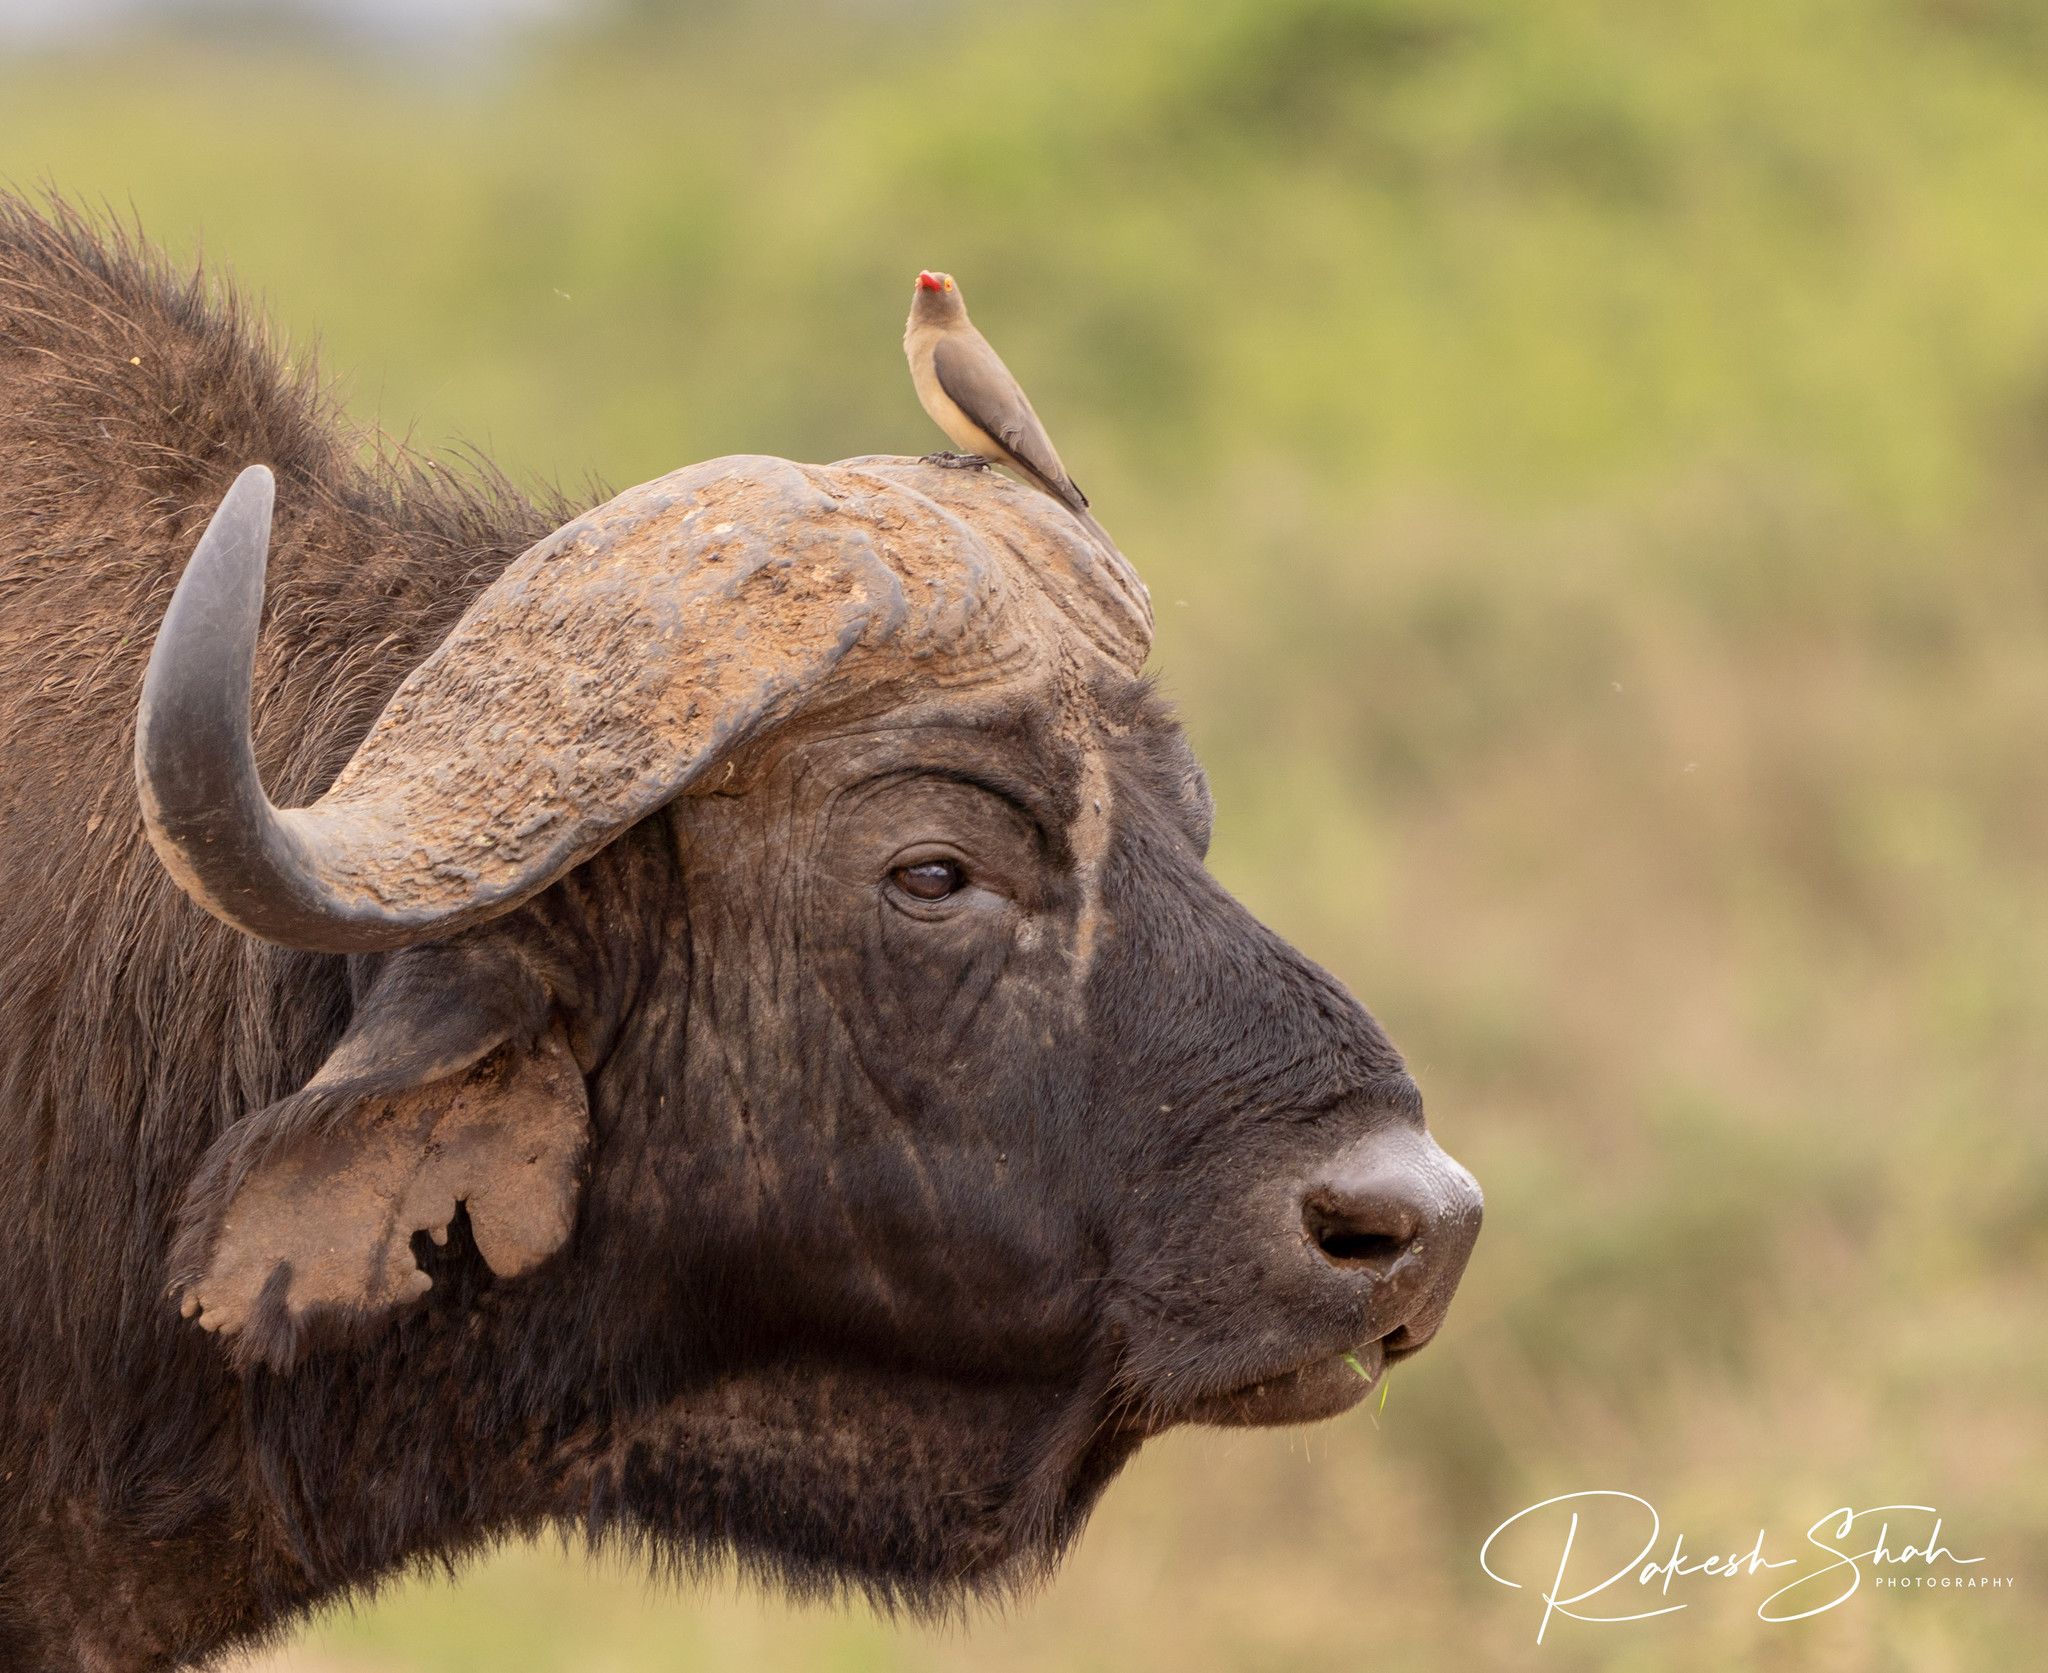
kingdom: Animalia
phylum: Chordata
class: Aves
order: Passeriformes
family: Buphagidae
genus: Buphagus
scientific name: Buphagus erythrorhynchus
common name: Red-billed oxpecker
